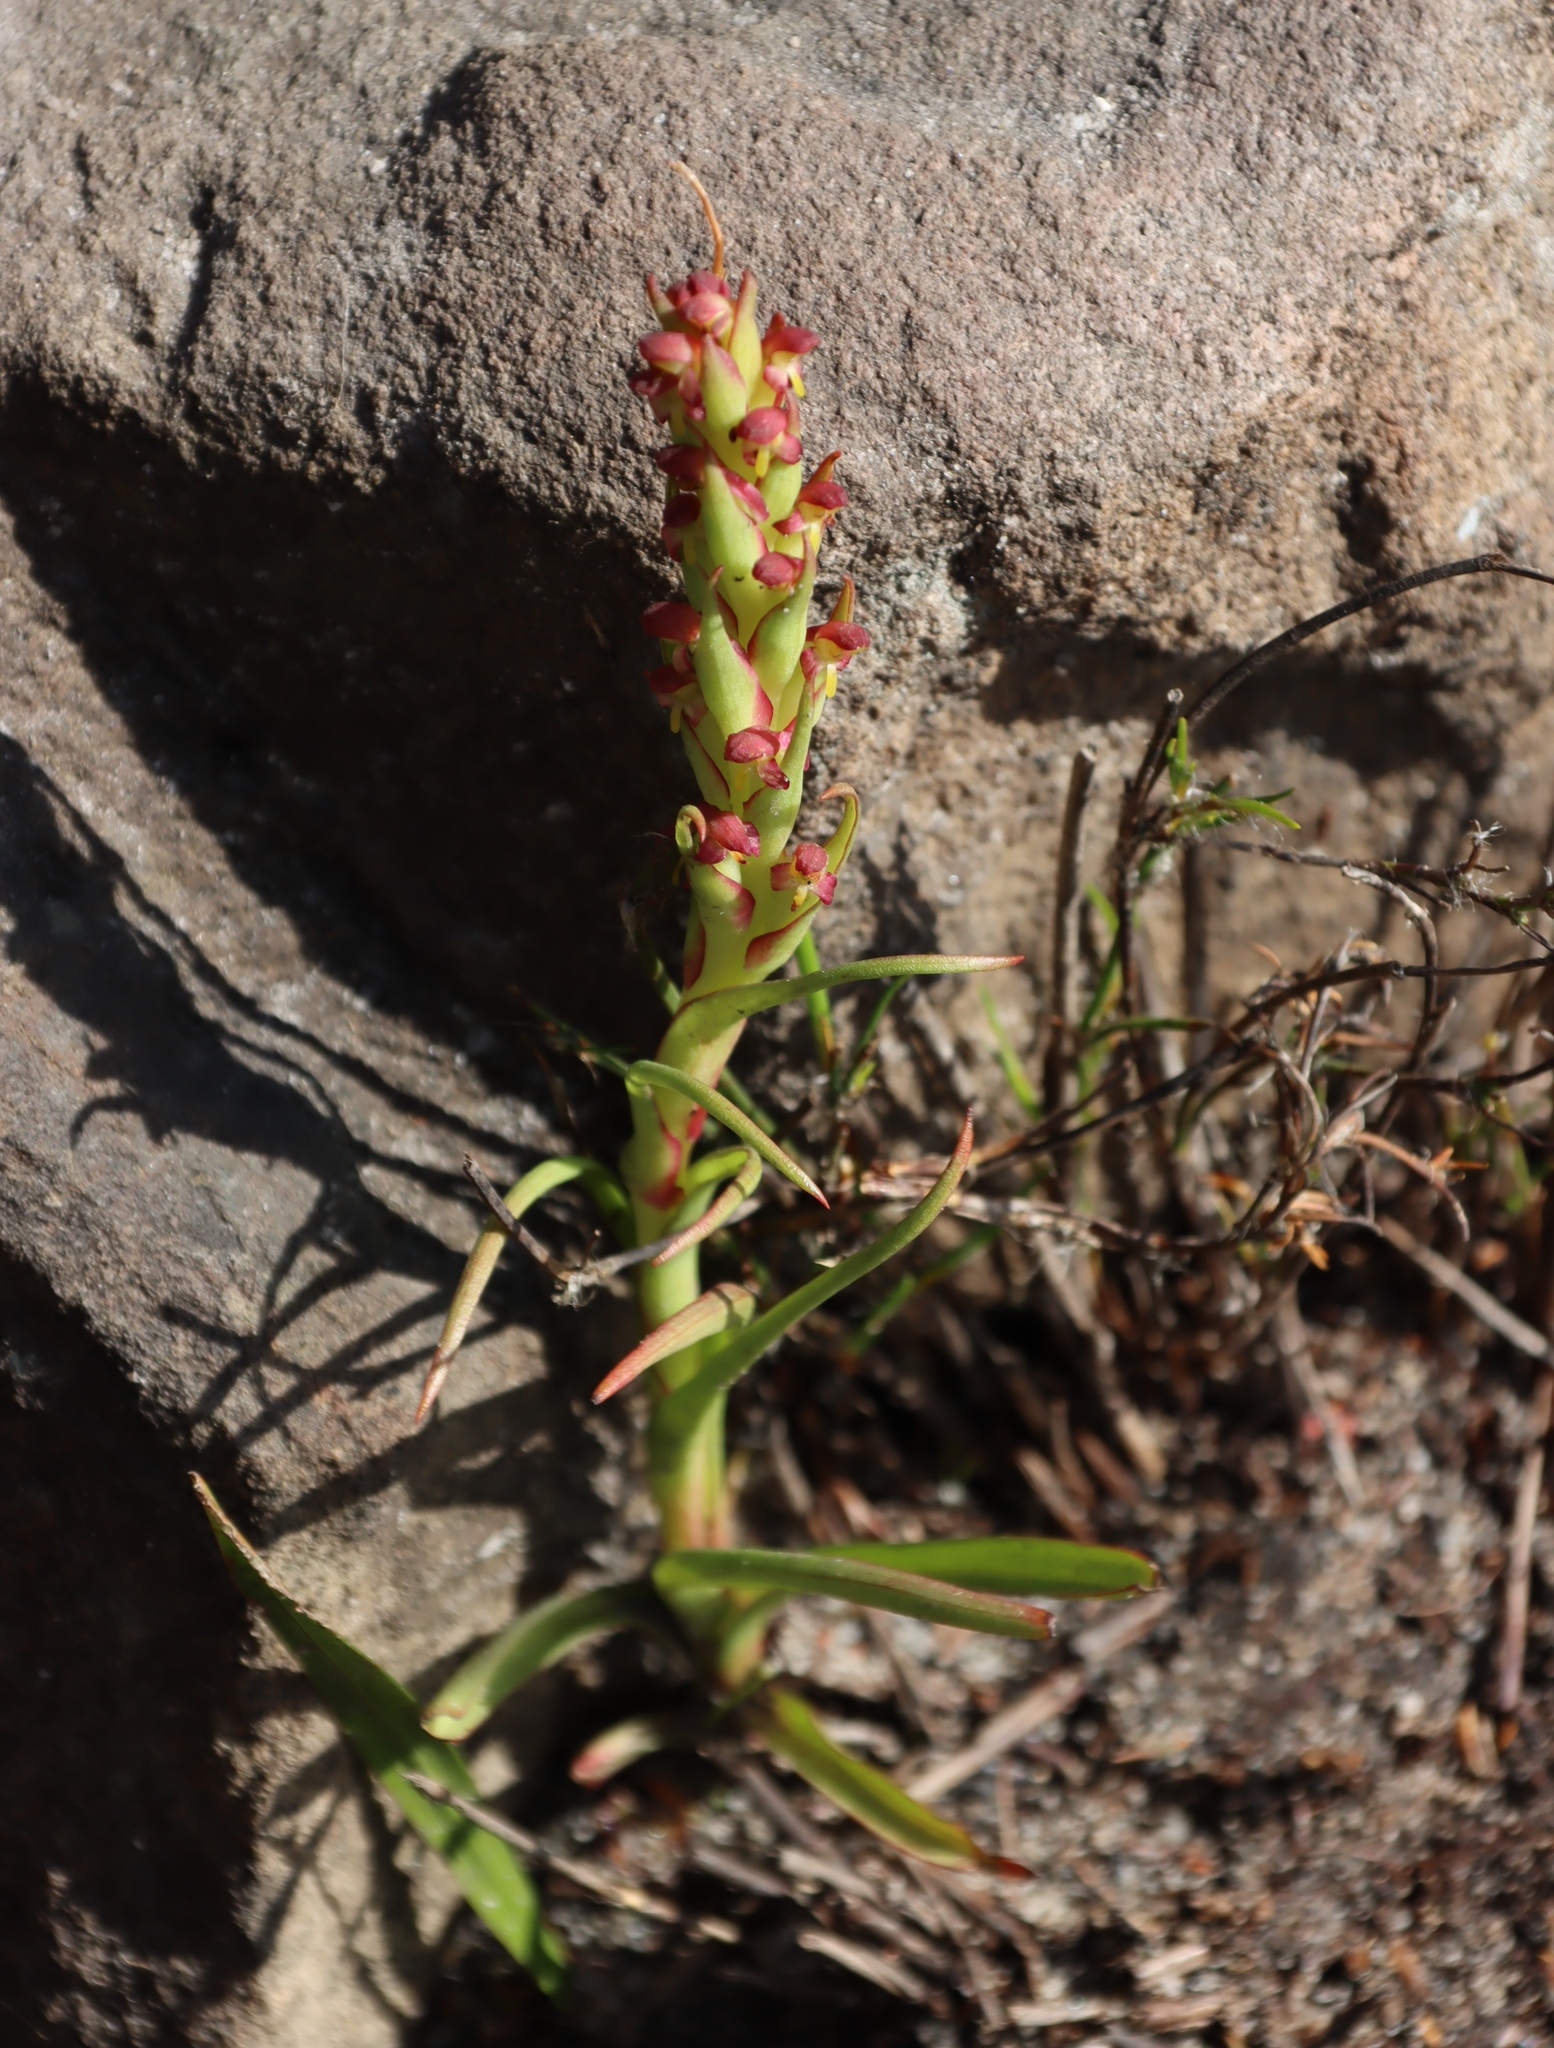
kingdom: Plantae
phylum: Tracheophyta
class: Liliopsida
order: Asparagales
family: Orchidaceae
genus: Disa
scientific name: Disa bracteata
